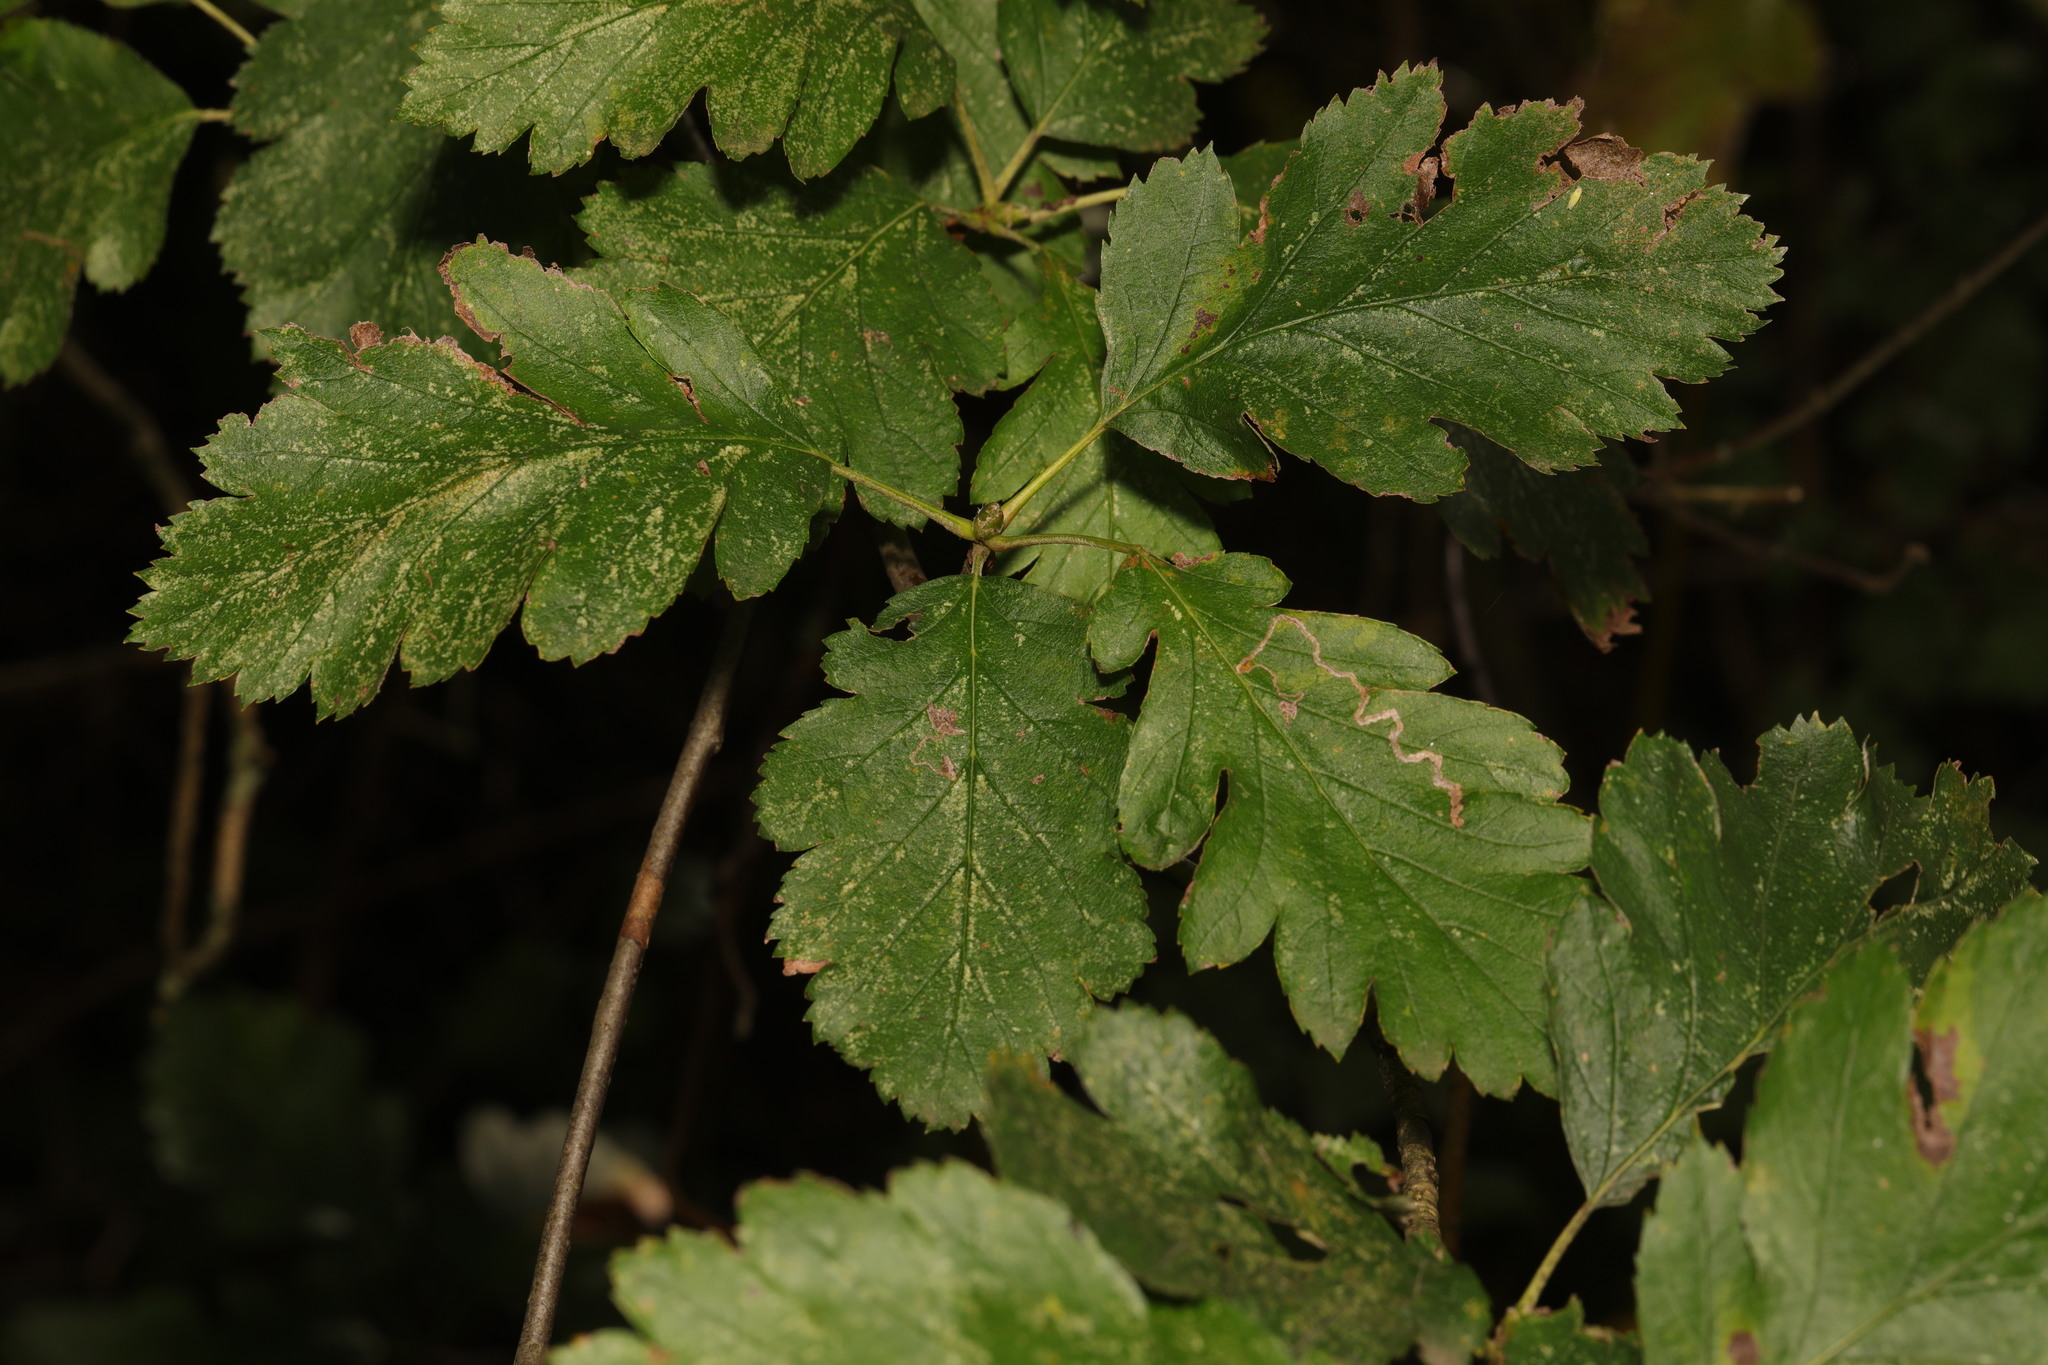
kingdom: Plantae
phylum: Tracheophyta
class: Magnoliopsida
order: Rosales
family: Rosaceae
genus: Scandosorbus
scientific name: Scandosorbus intermedia
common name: Swedish whitebeam
